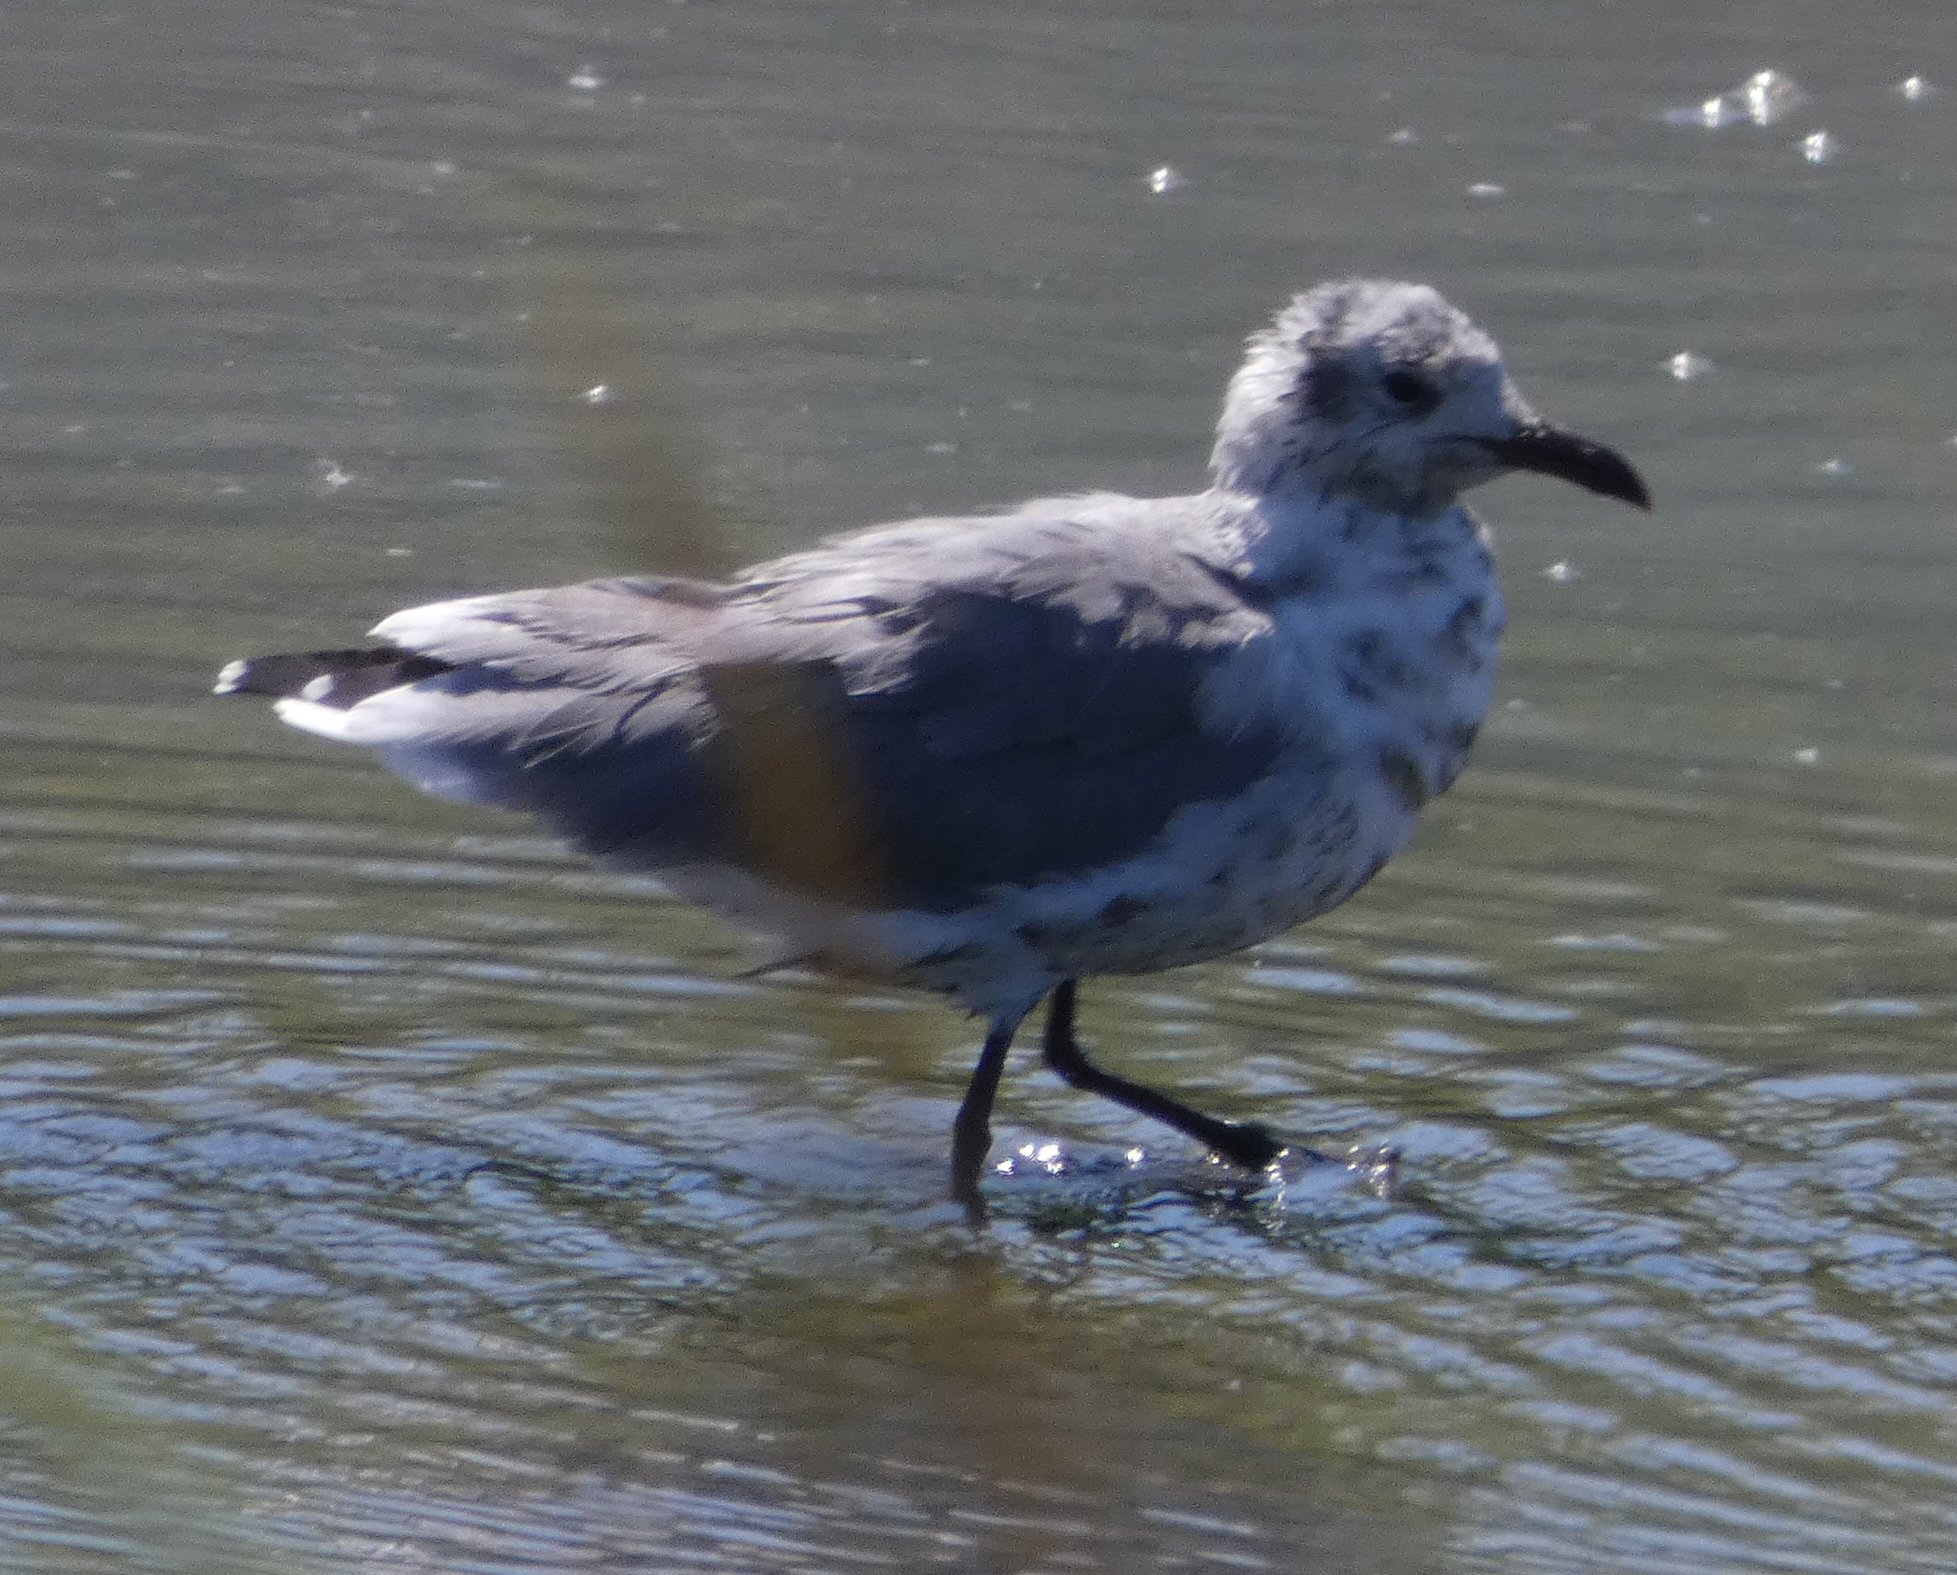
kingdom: Animalia
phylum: Chordata
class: Aves
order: Charadriiformes
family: Laridae
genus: Leucophaeus
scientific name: Leucophaeus atricilla
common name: Laughing gull
